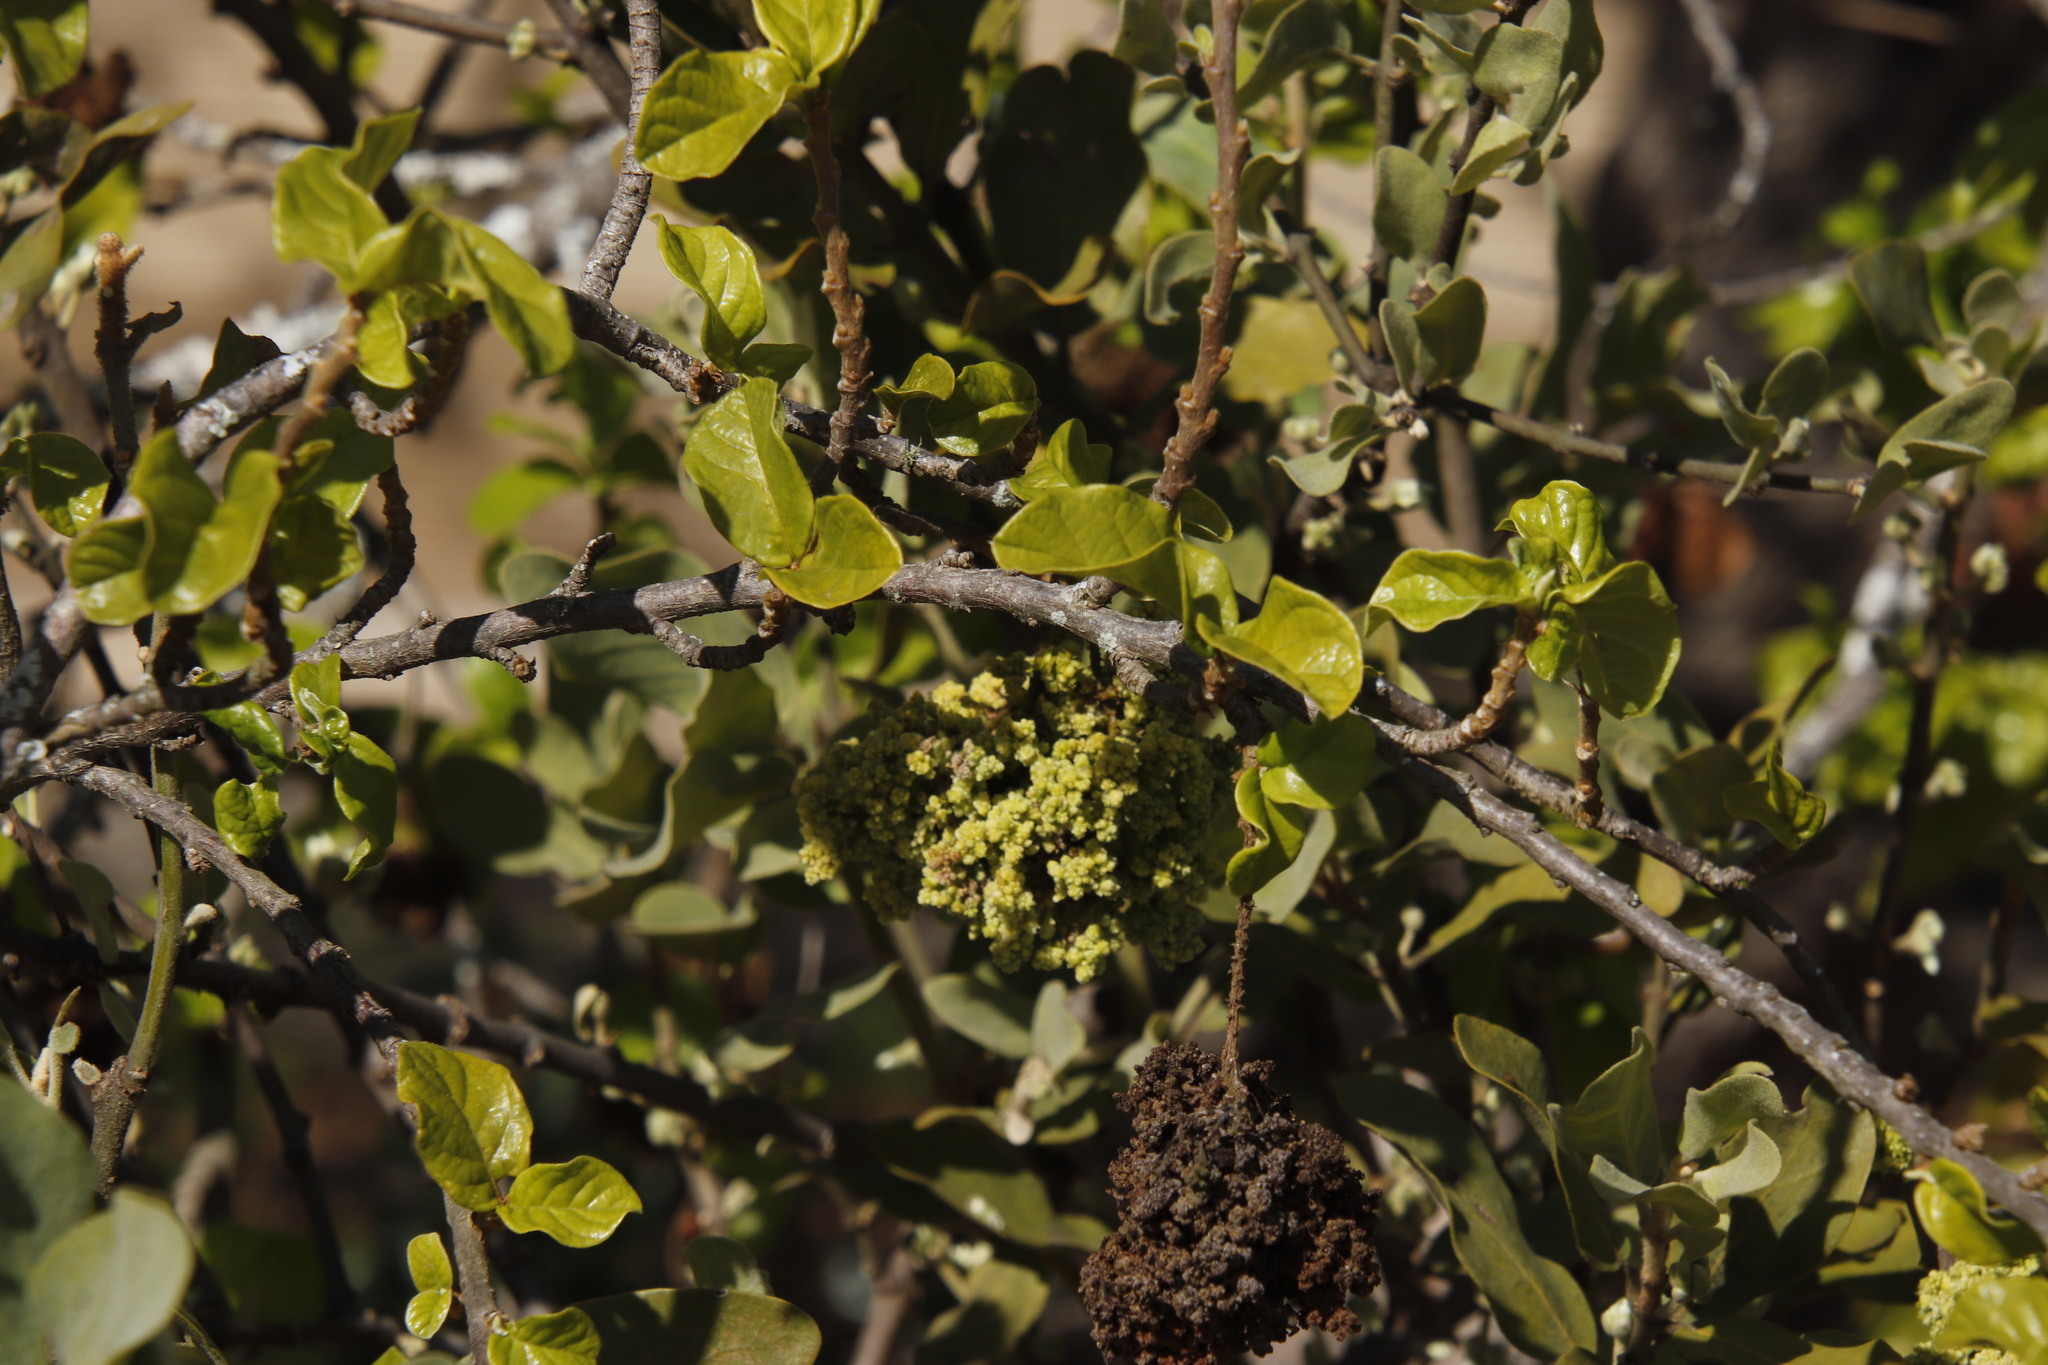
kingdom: Plantae
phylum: Tracheophyta
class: Magnoliopsida
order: Malpighiales
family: Phyllanthaceae
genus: Antidesma
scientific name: Antidesma venosum
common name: Tassel-berry
